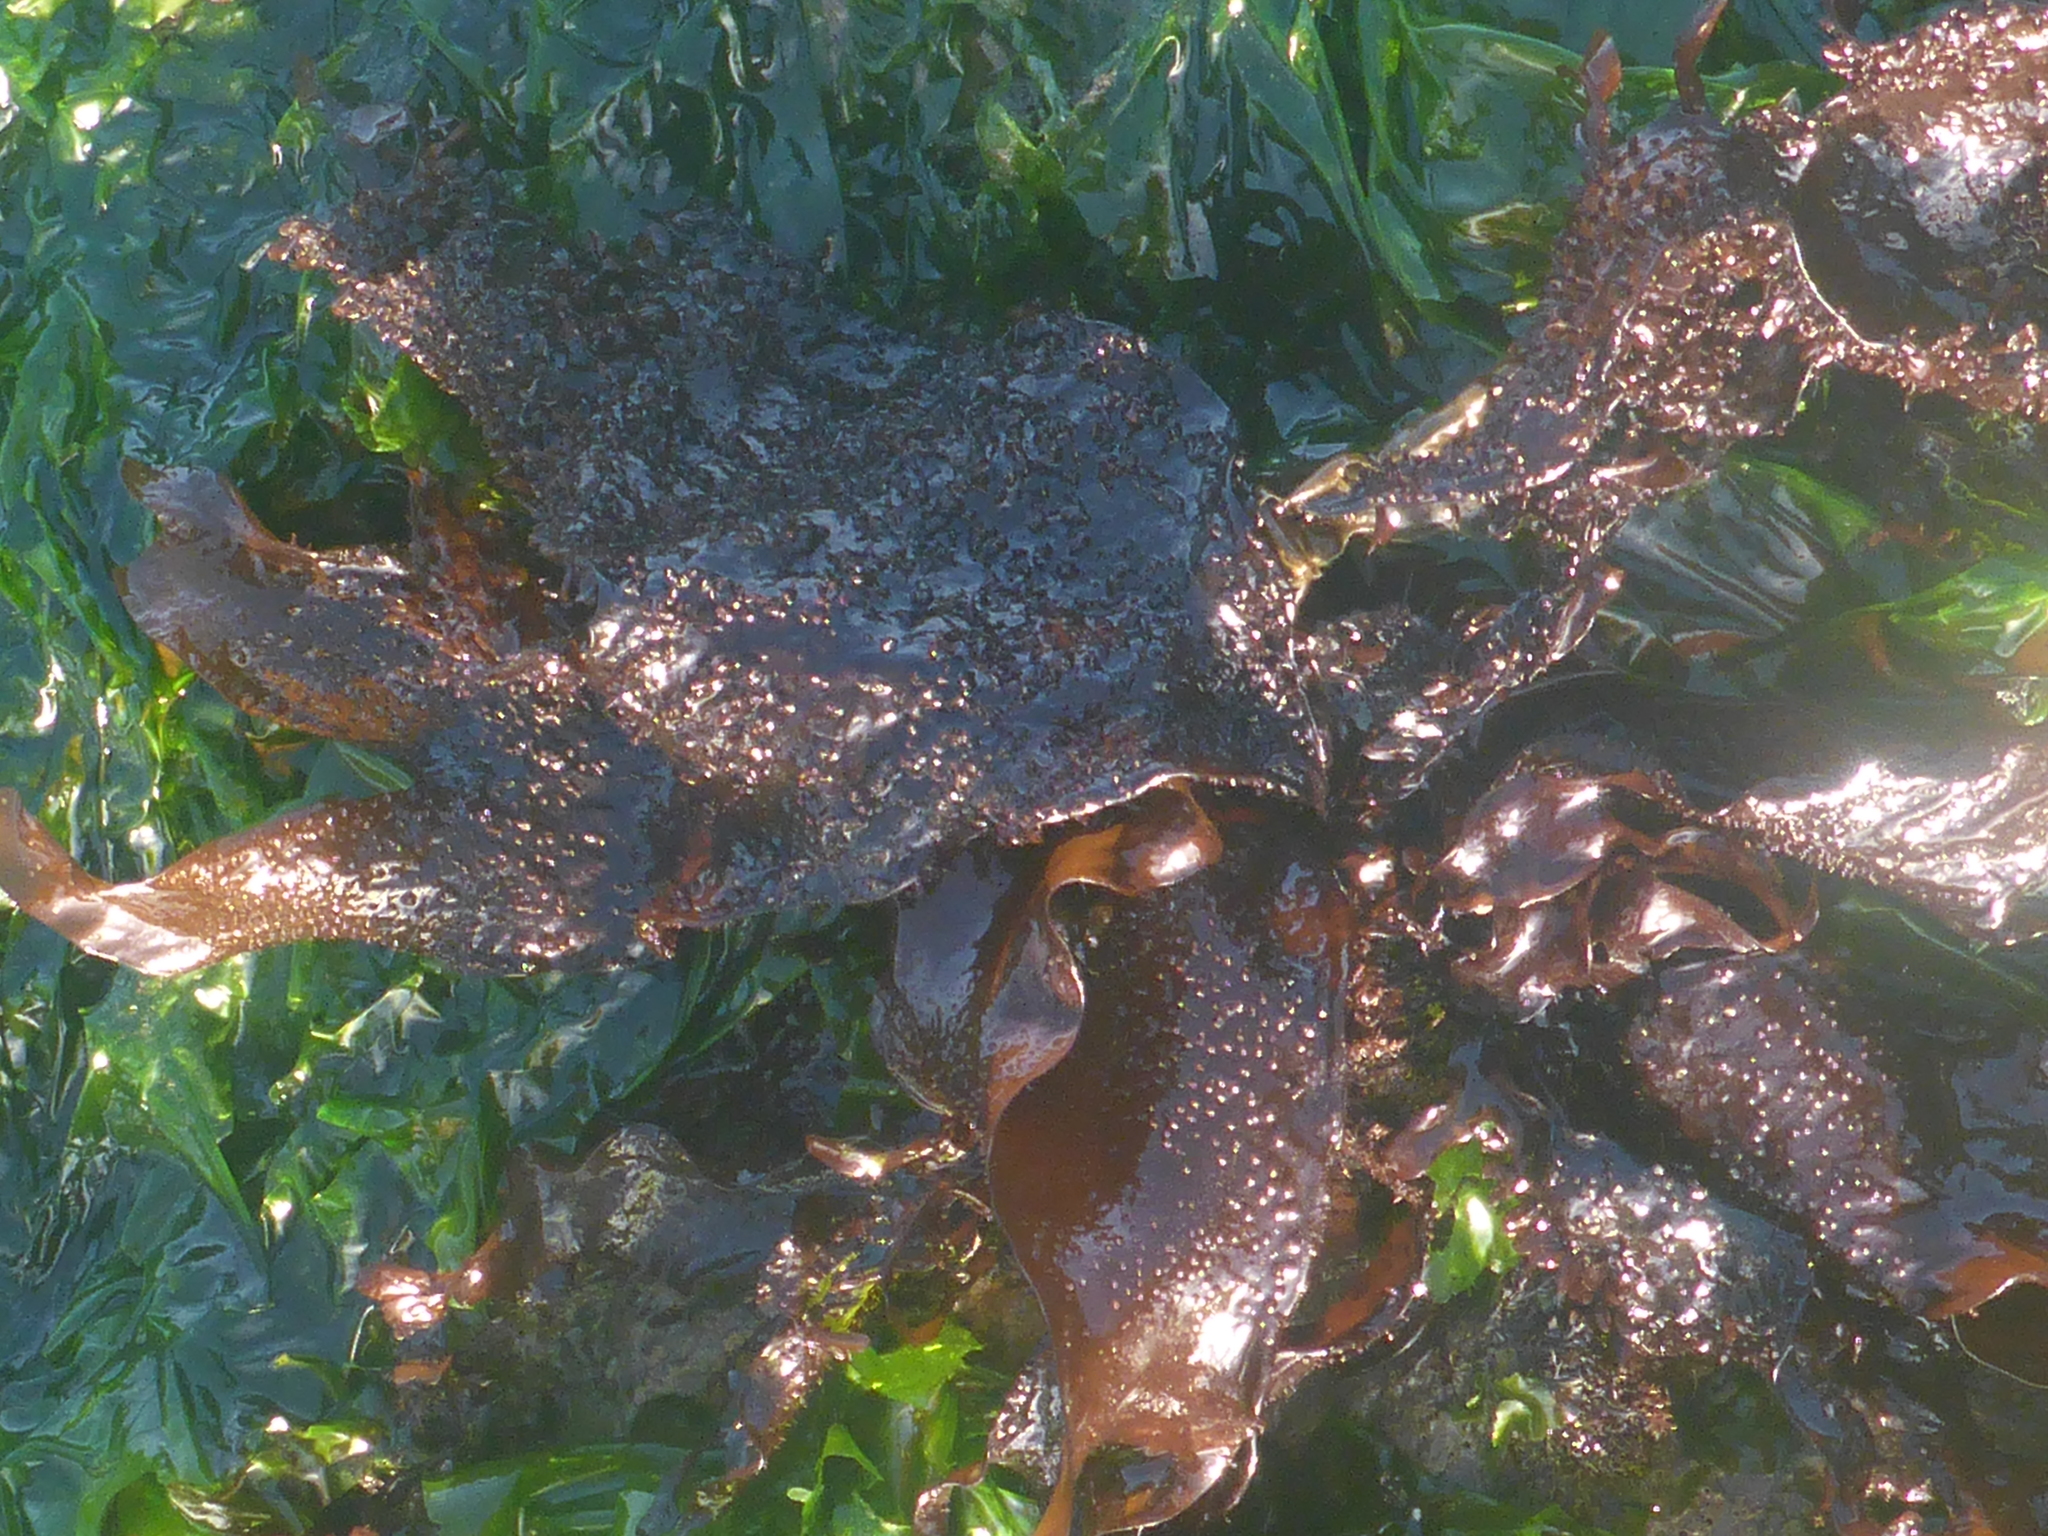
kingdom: Plantae
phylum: Rhodophyta
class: Florideophyceae
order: Gigartinales
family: Phyllophoraceae
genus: Mastocarpus
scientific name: Mastocarpus papillatus
